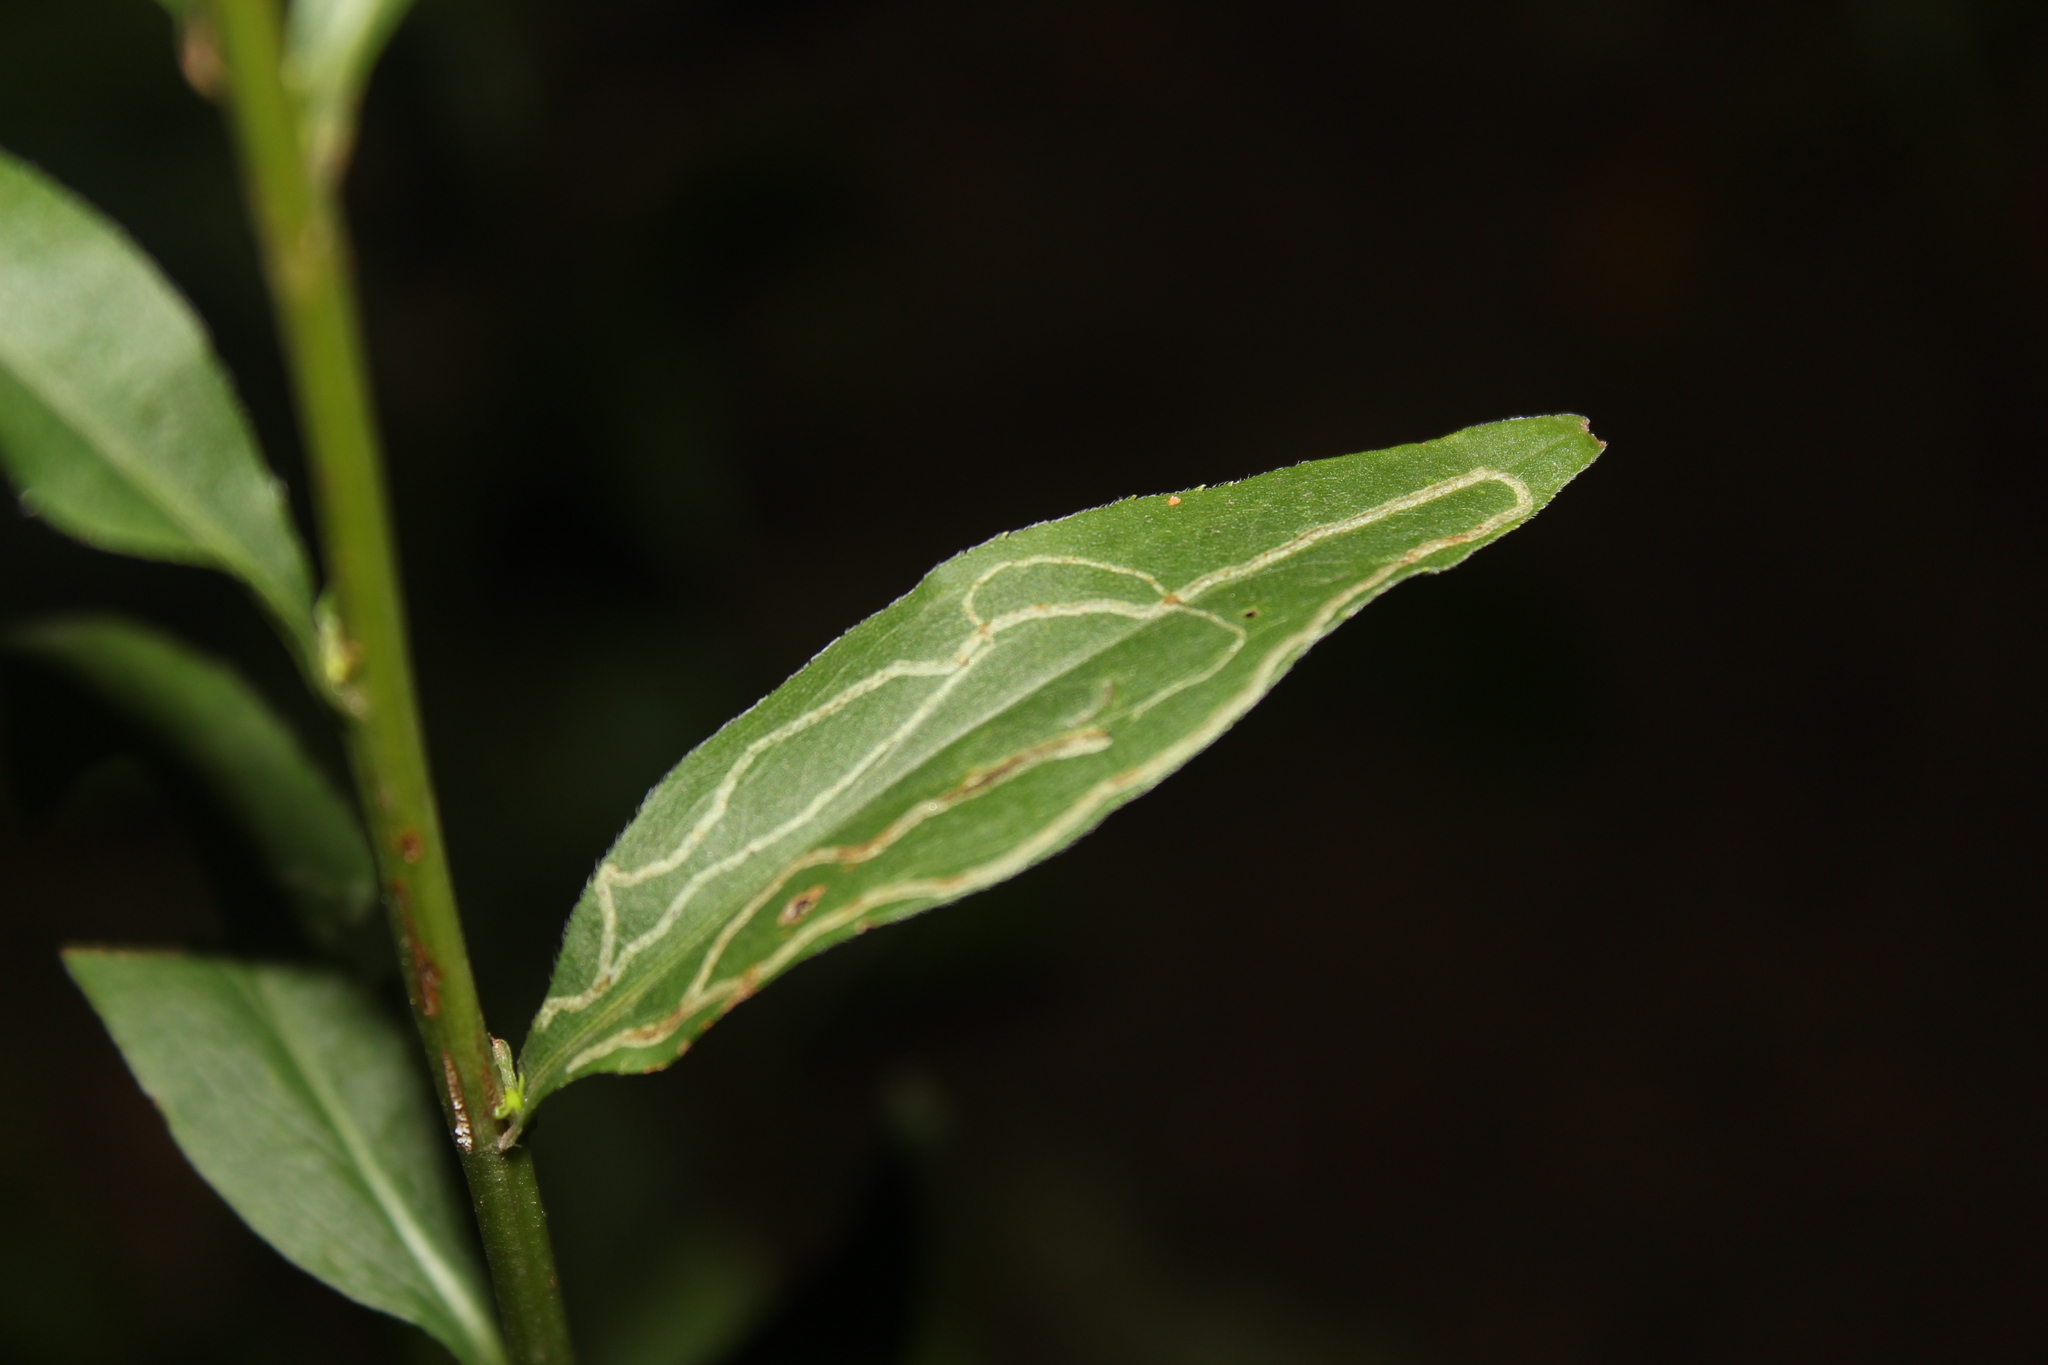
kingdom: Animalia
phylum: Arthropoda
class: Insecta
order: Diptera
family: Agromyzidae
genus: Ophiomyia
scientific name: Ophiomyia maura
